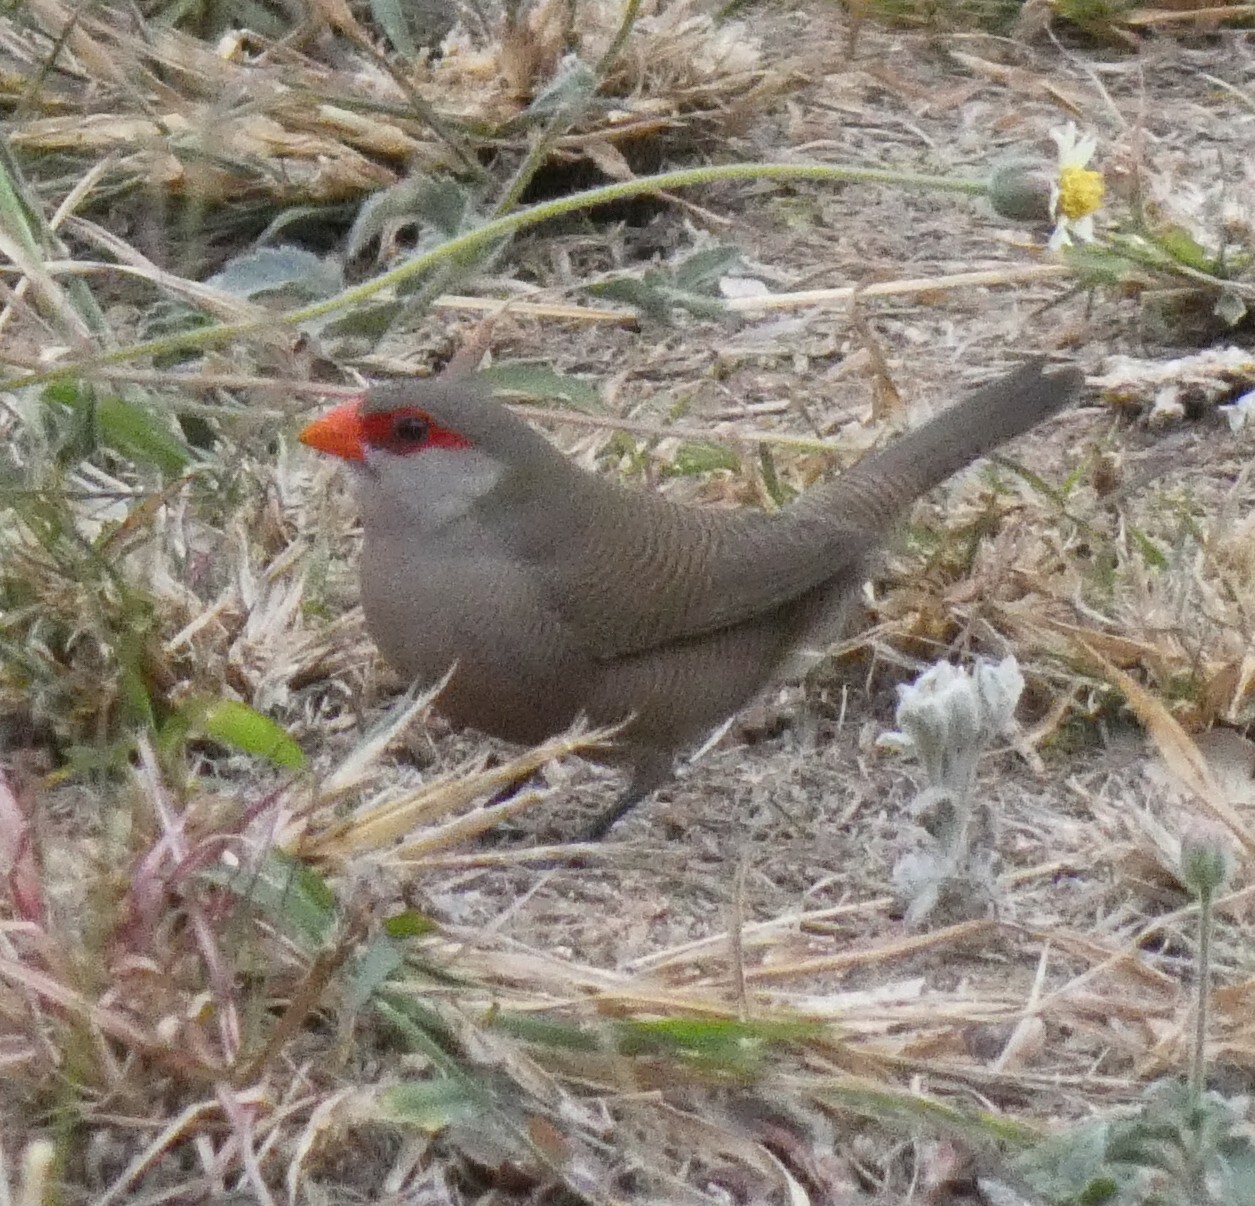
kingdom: Animalia
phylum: Chordata
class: Aves
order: Passeriformes
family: Estrildidae
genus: Estrilda
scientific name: Estrilda astrild
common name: Common waxbill
